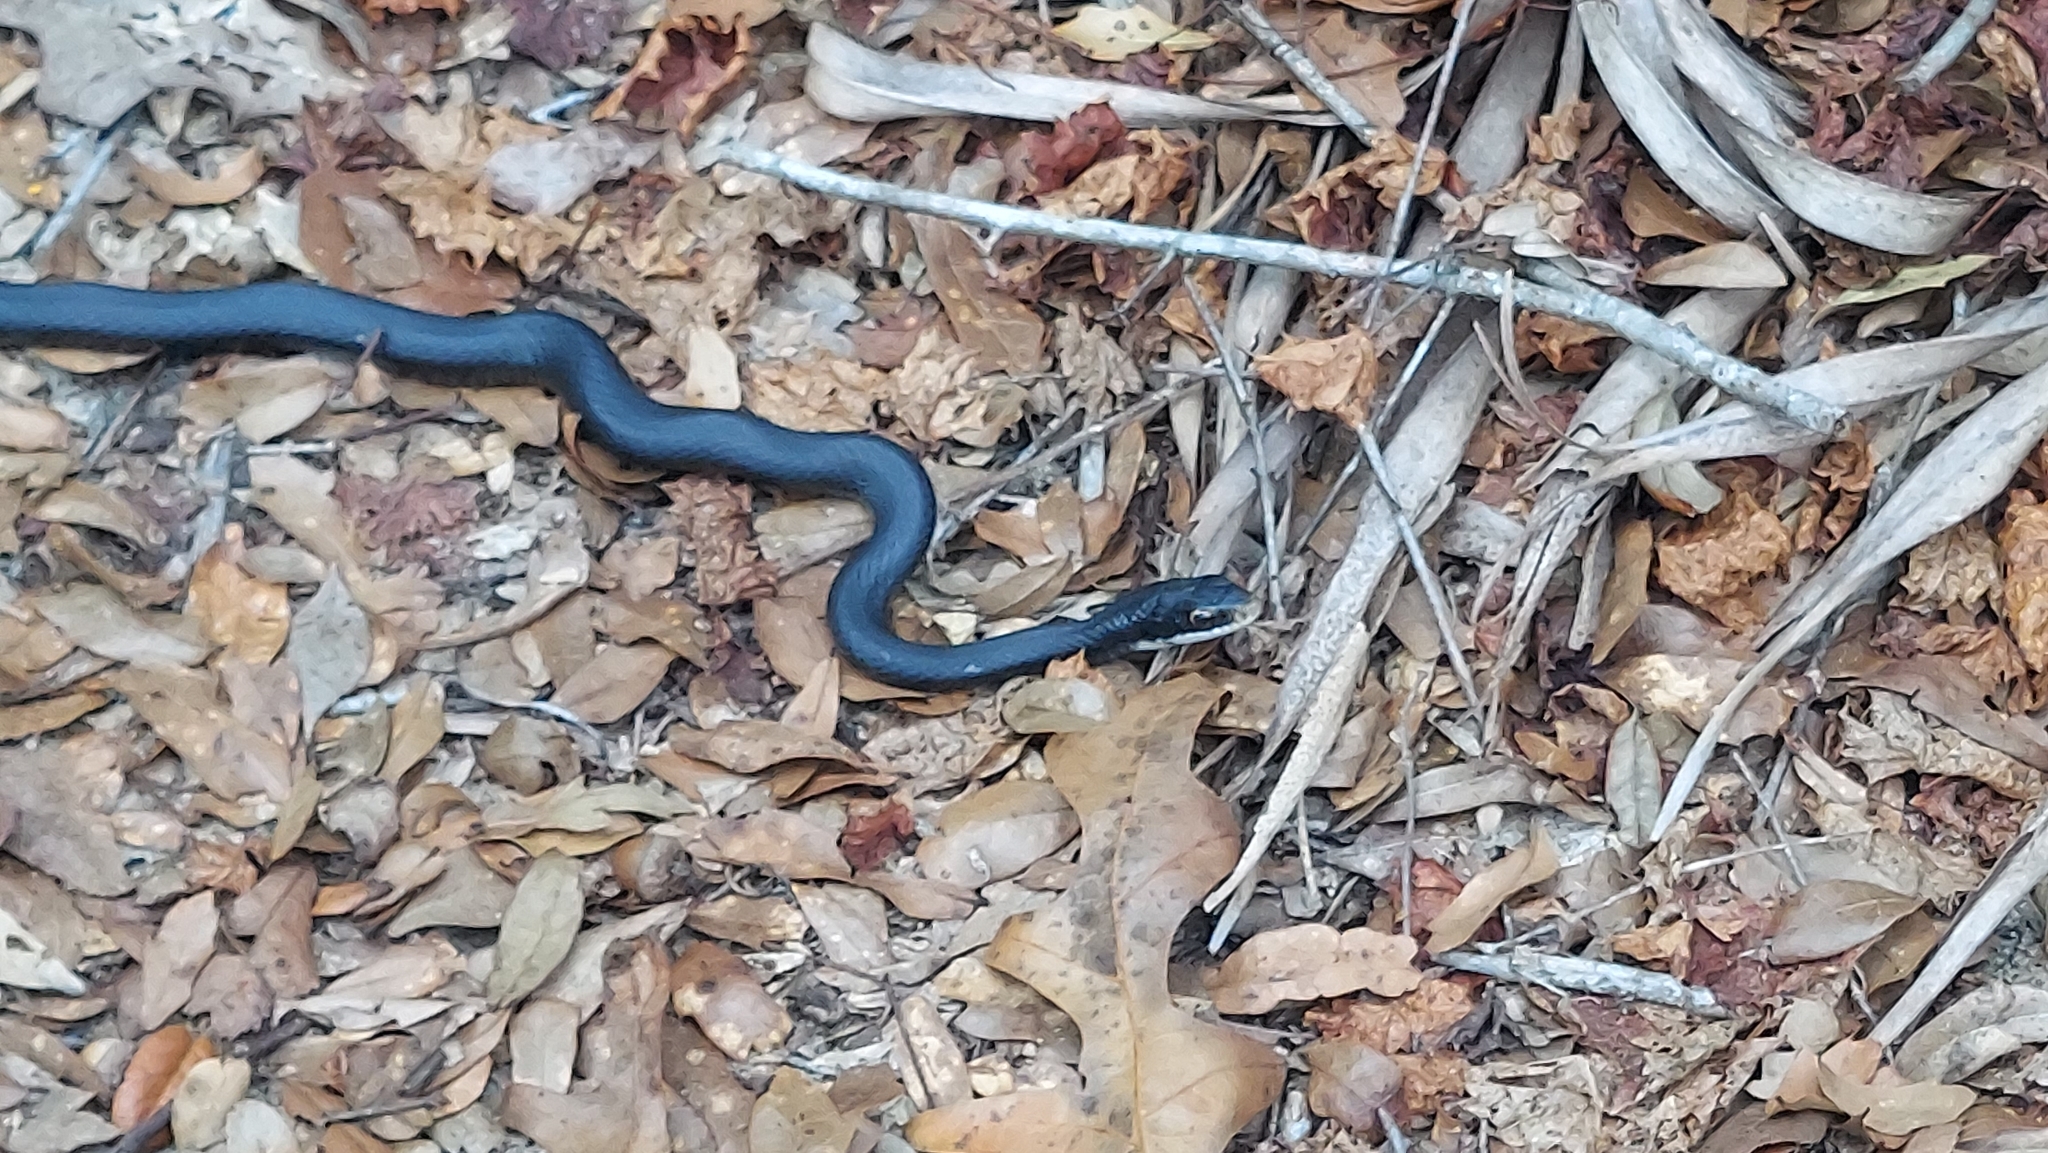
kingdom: Animalia
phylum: Chordata
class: Squamata
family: Colubridae
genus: Coluber
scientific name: Coluber constrictor
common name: Eastern racer
